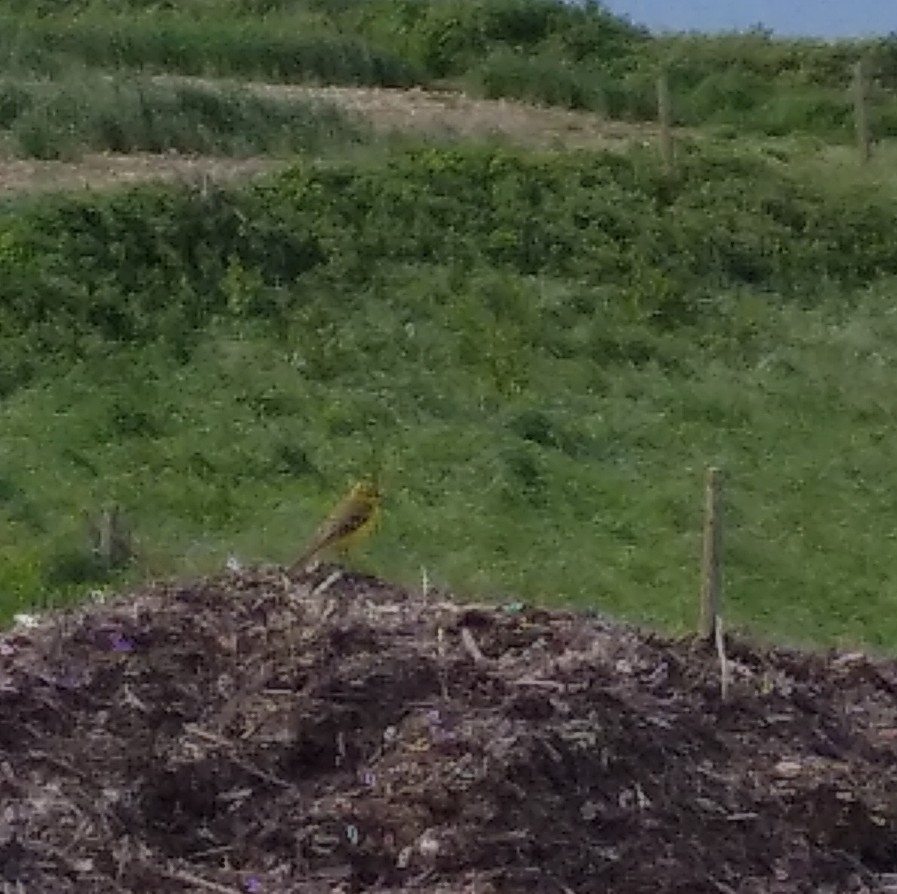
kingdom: Animalia
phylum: Chordata
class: Aves
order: Passeriformes
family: Motacillidae
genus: Motacilla
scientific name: Motacilla flava
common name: Western yellow wagtail
